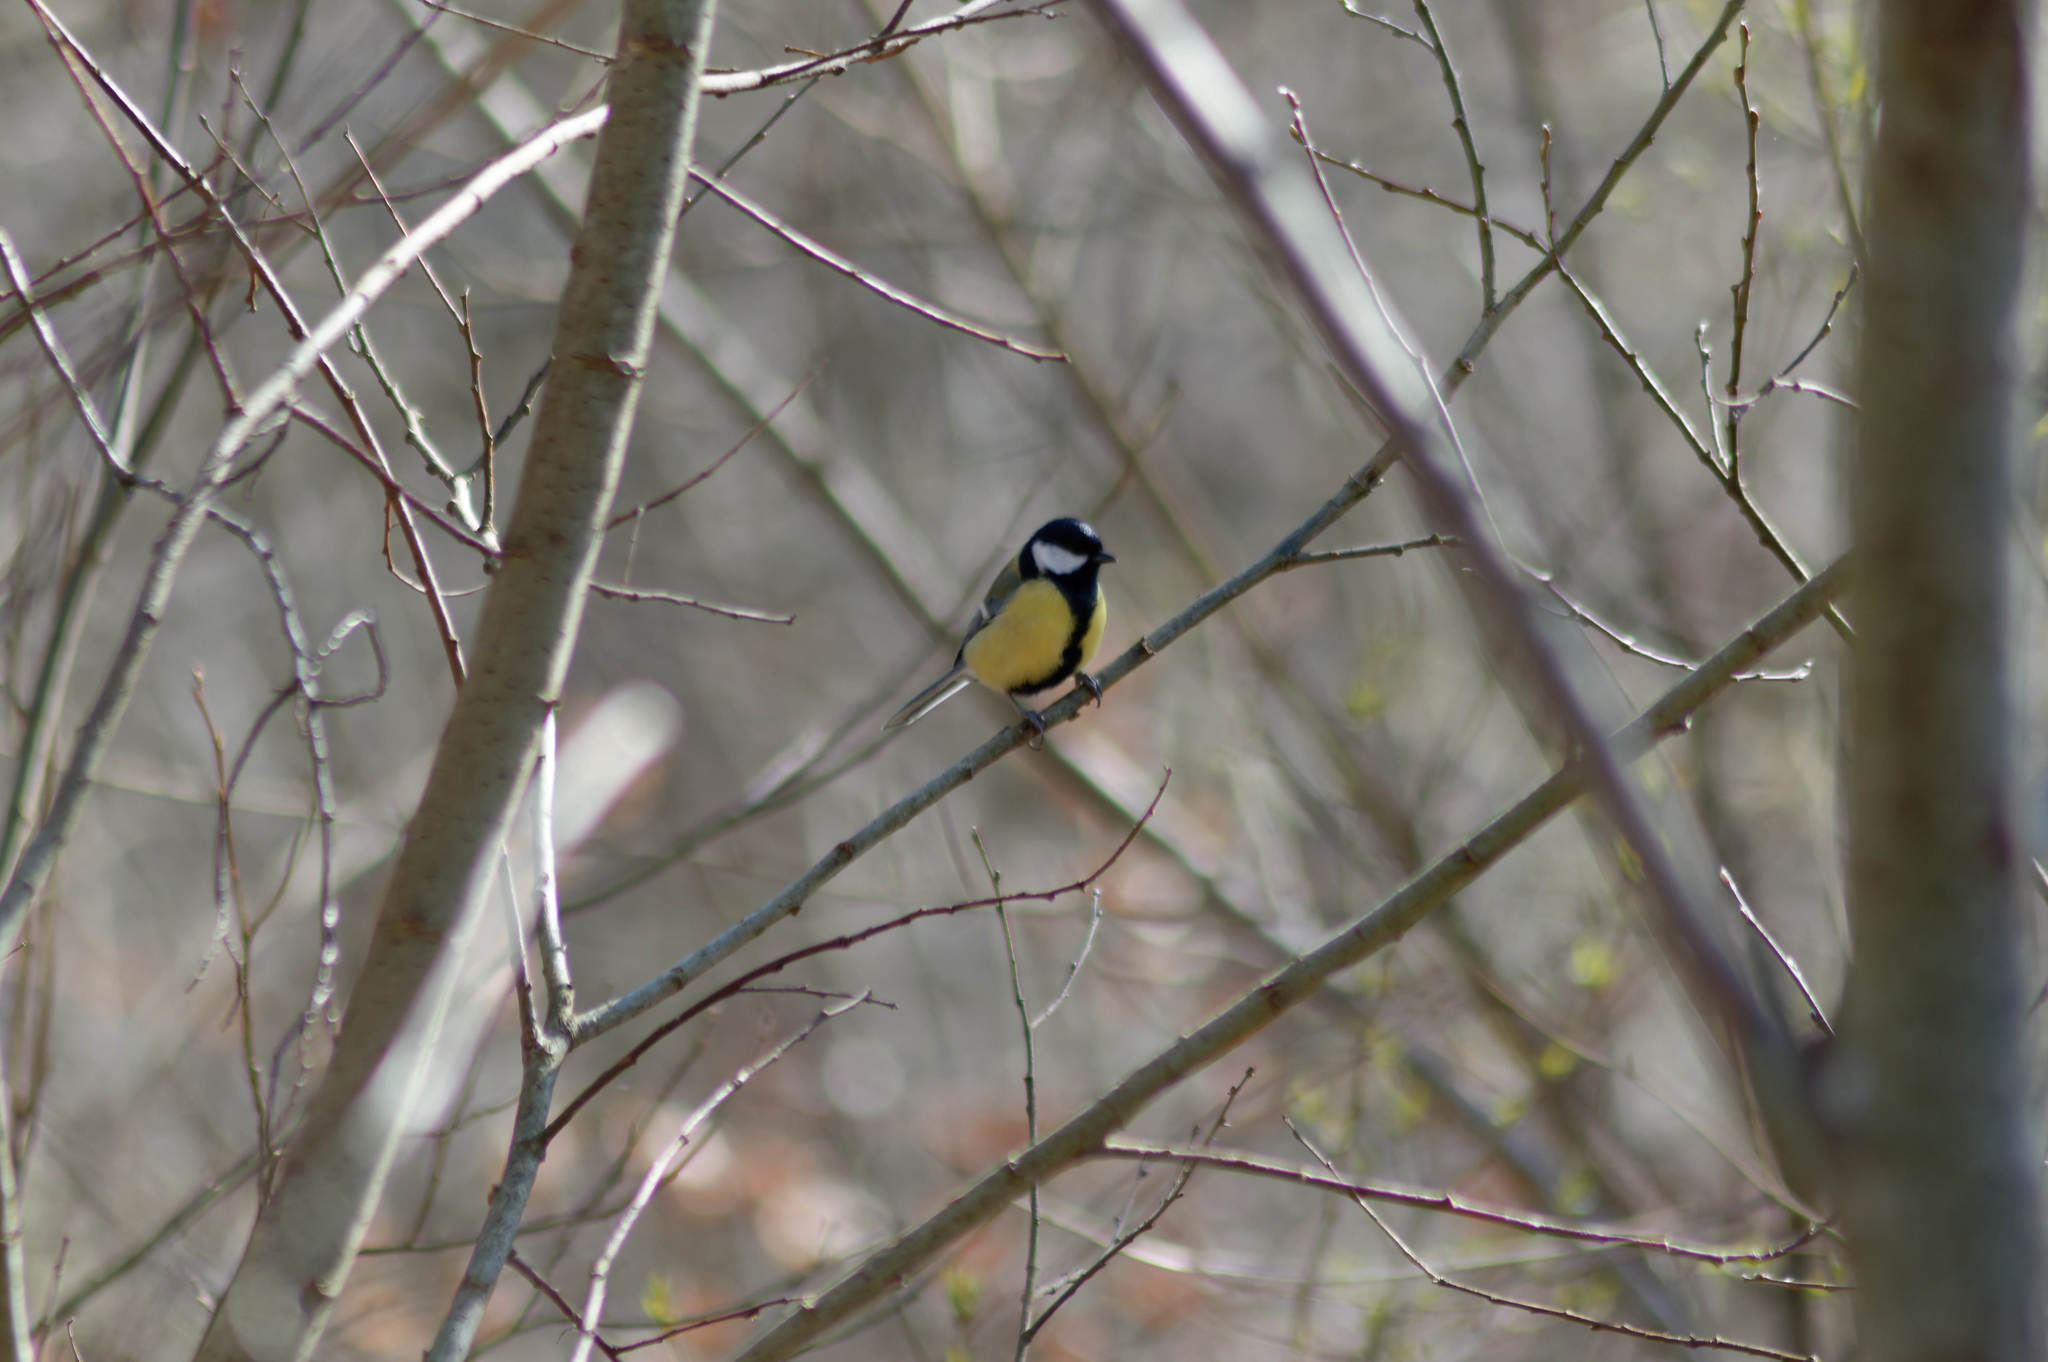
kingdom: Animalia
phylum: Chordata
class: Aves
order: Passeriformes
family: Paridae
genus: Parus
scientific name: Parus major
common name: Great tit
